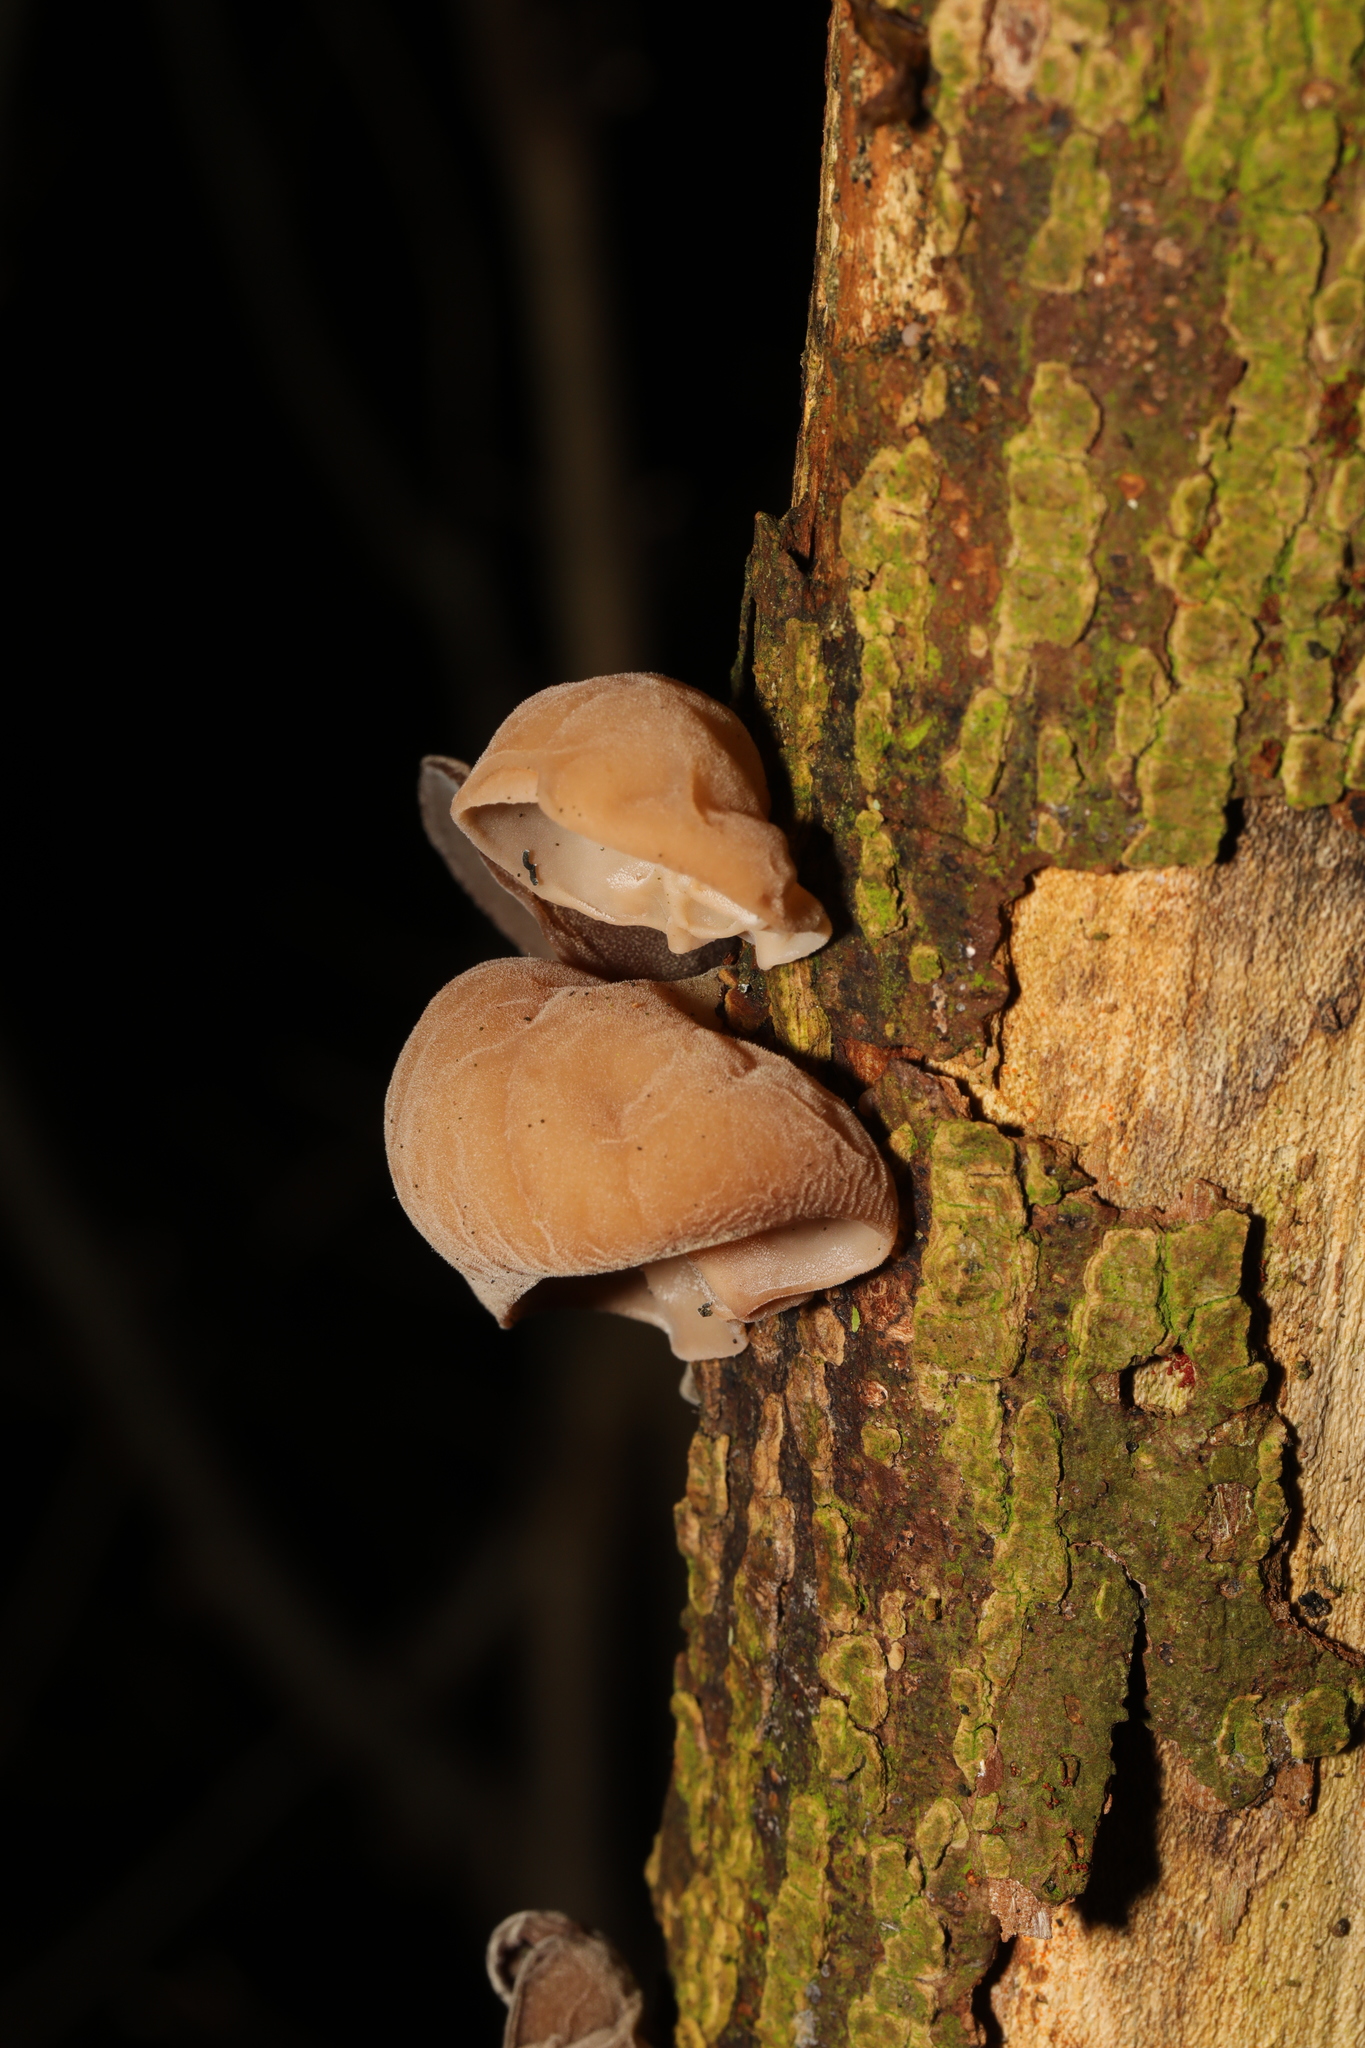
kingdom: Fungi
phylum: Basidiomycota
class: Agaricomycetes
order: Auriculariales
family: Auriculariaceae
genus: Auricularia
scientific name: Auricularia auricula-judae
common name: Jelly ear
